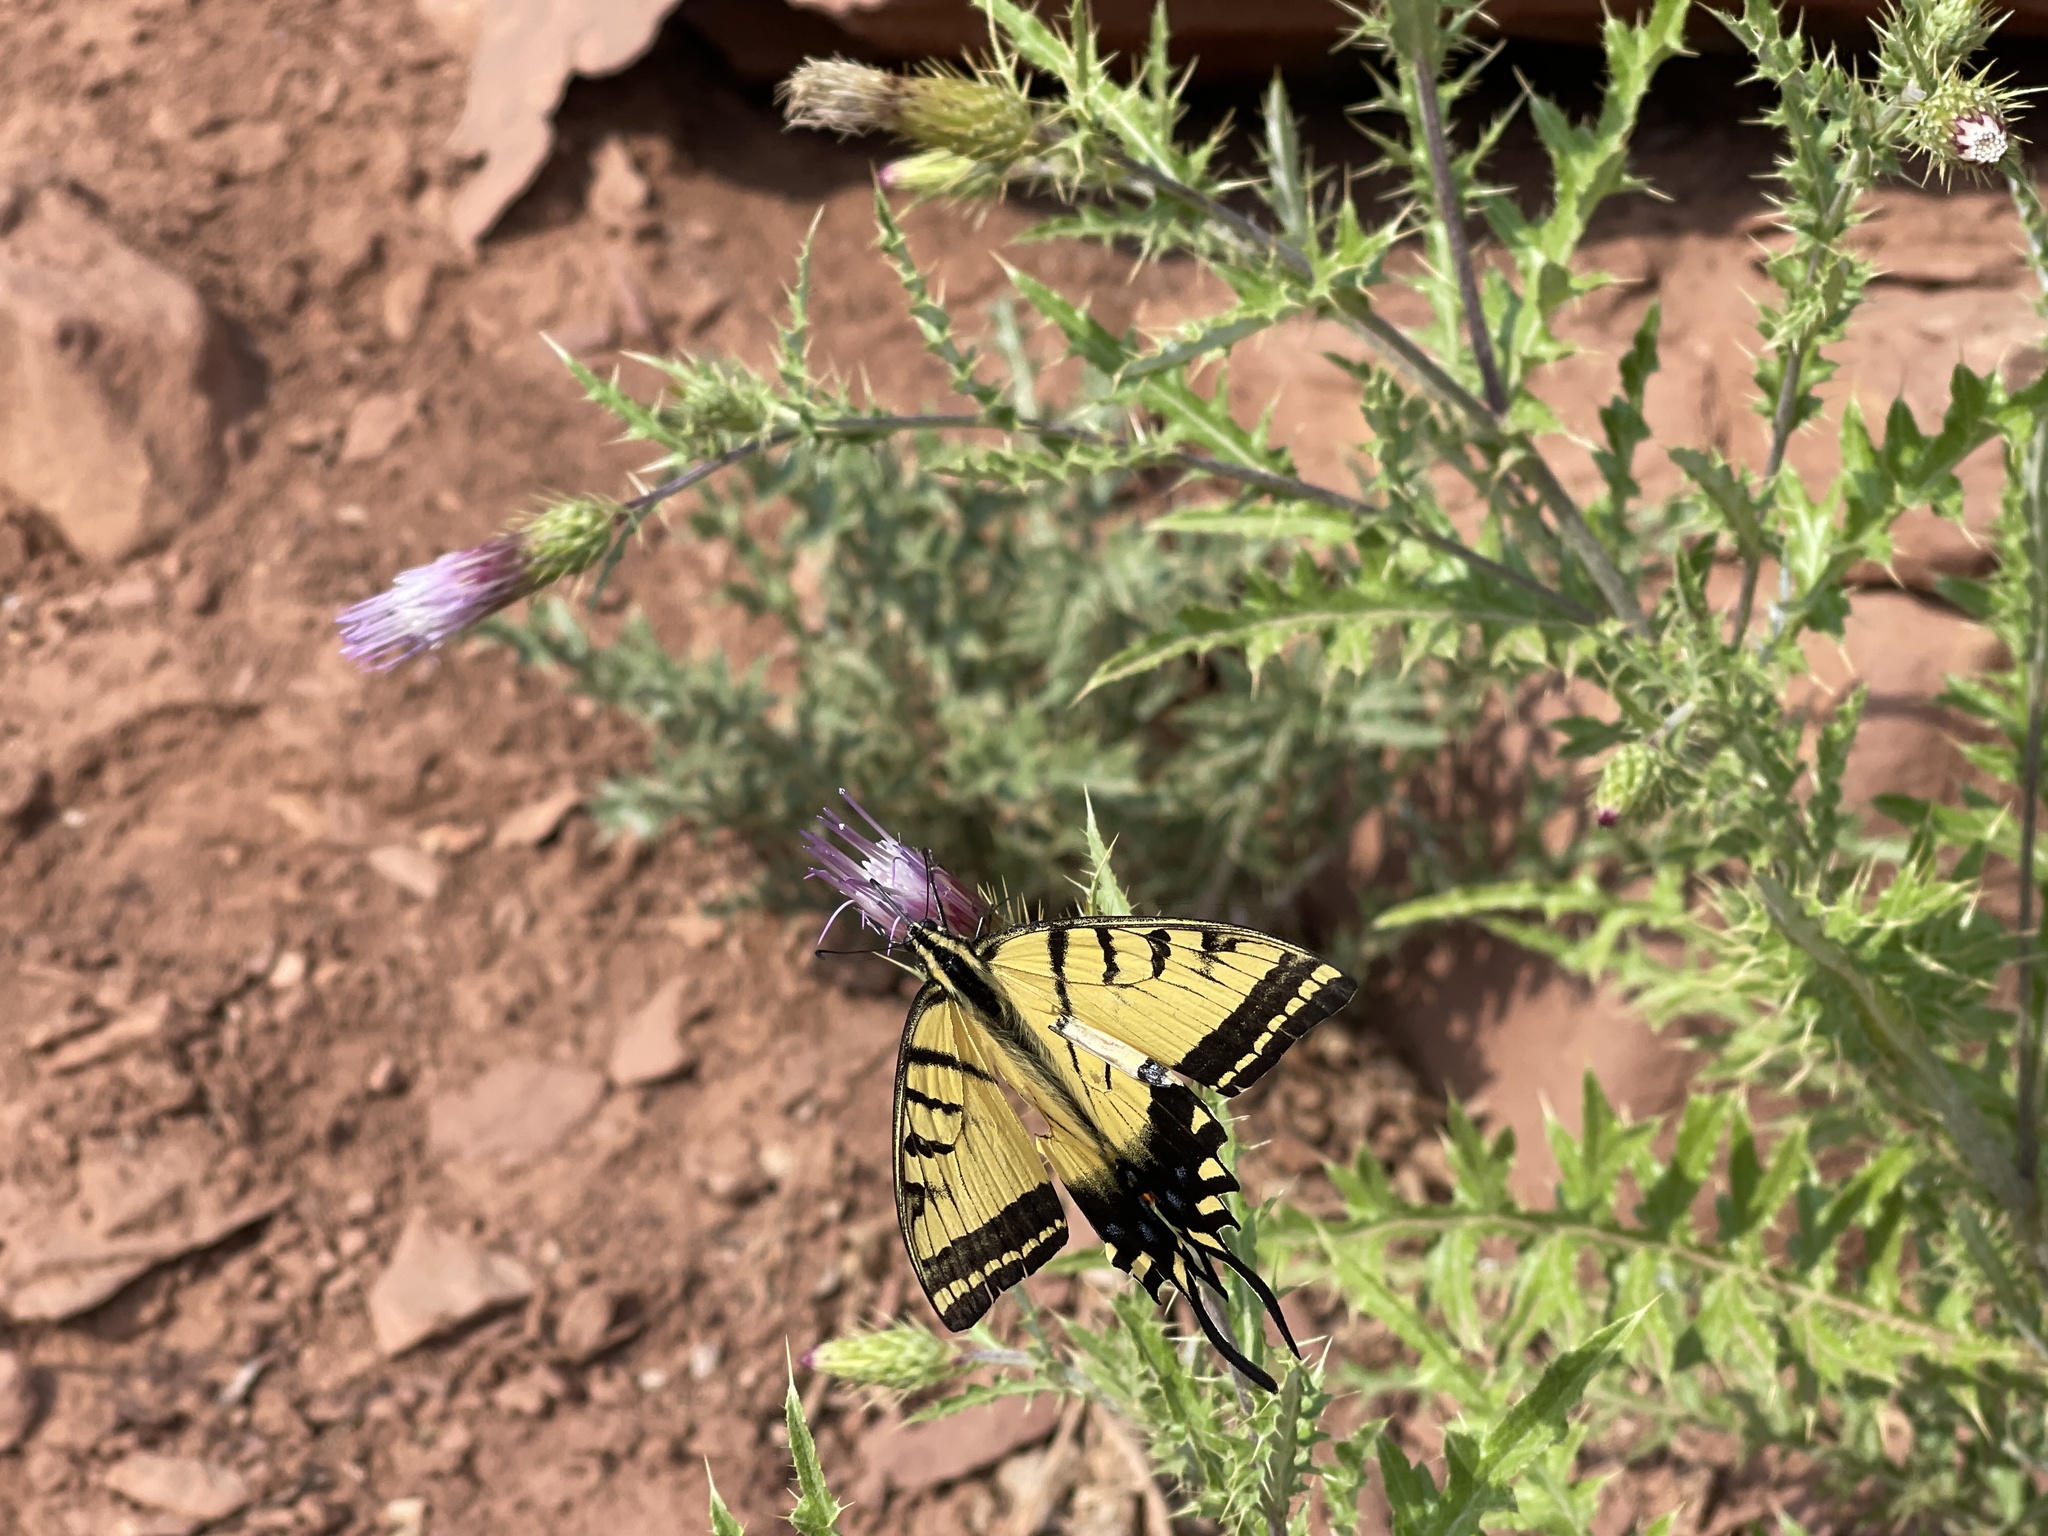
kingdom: Animalia
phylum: Arthropoda
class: Insecta
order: Lepidoptera
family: Papilionidae
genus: Papilio
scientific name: Papilio multicaudata
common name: Two-tailed tiger swallowtail
